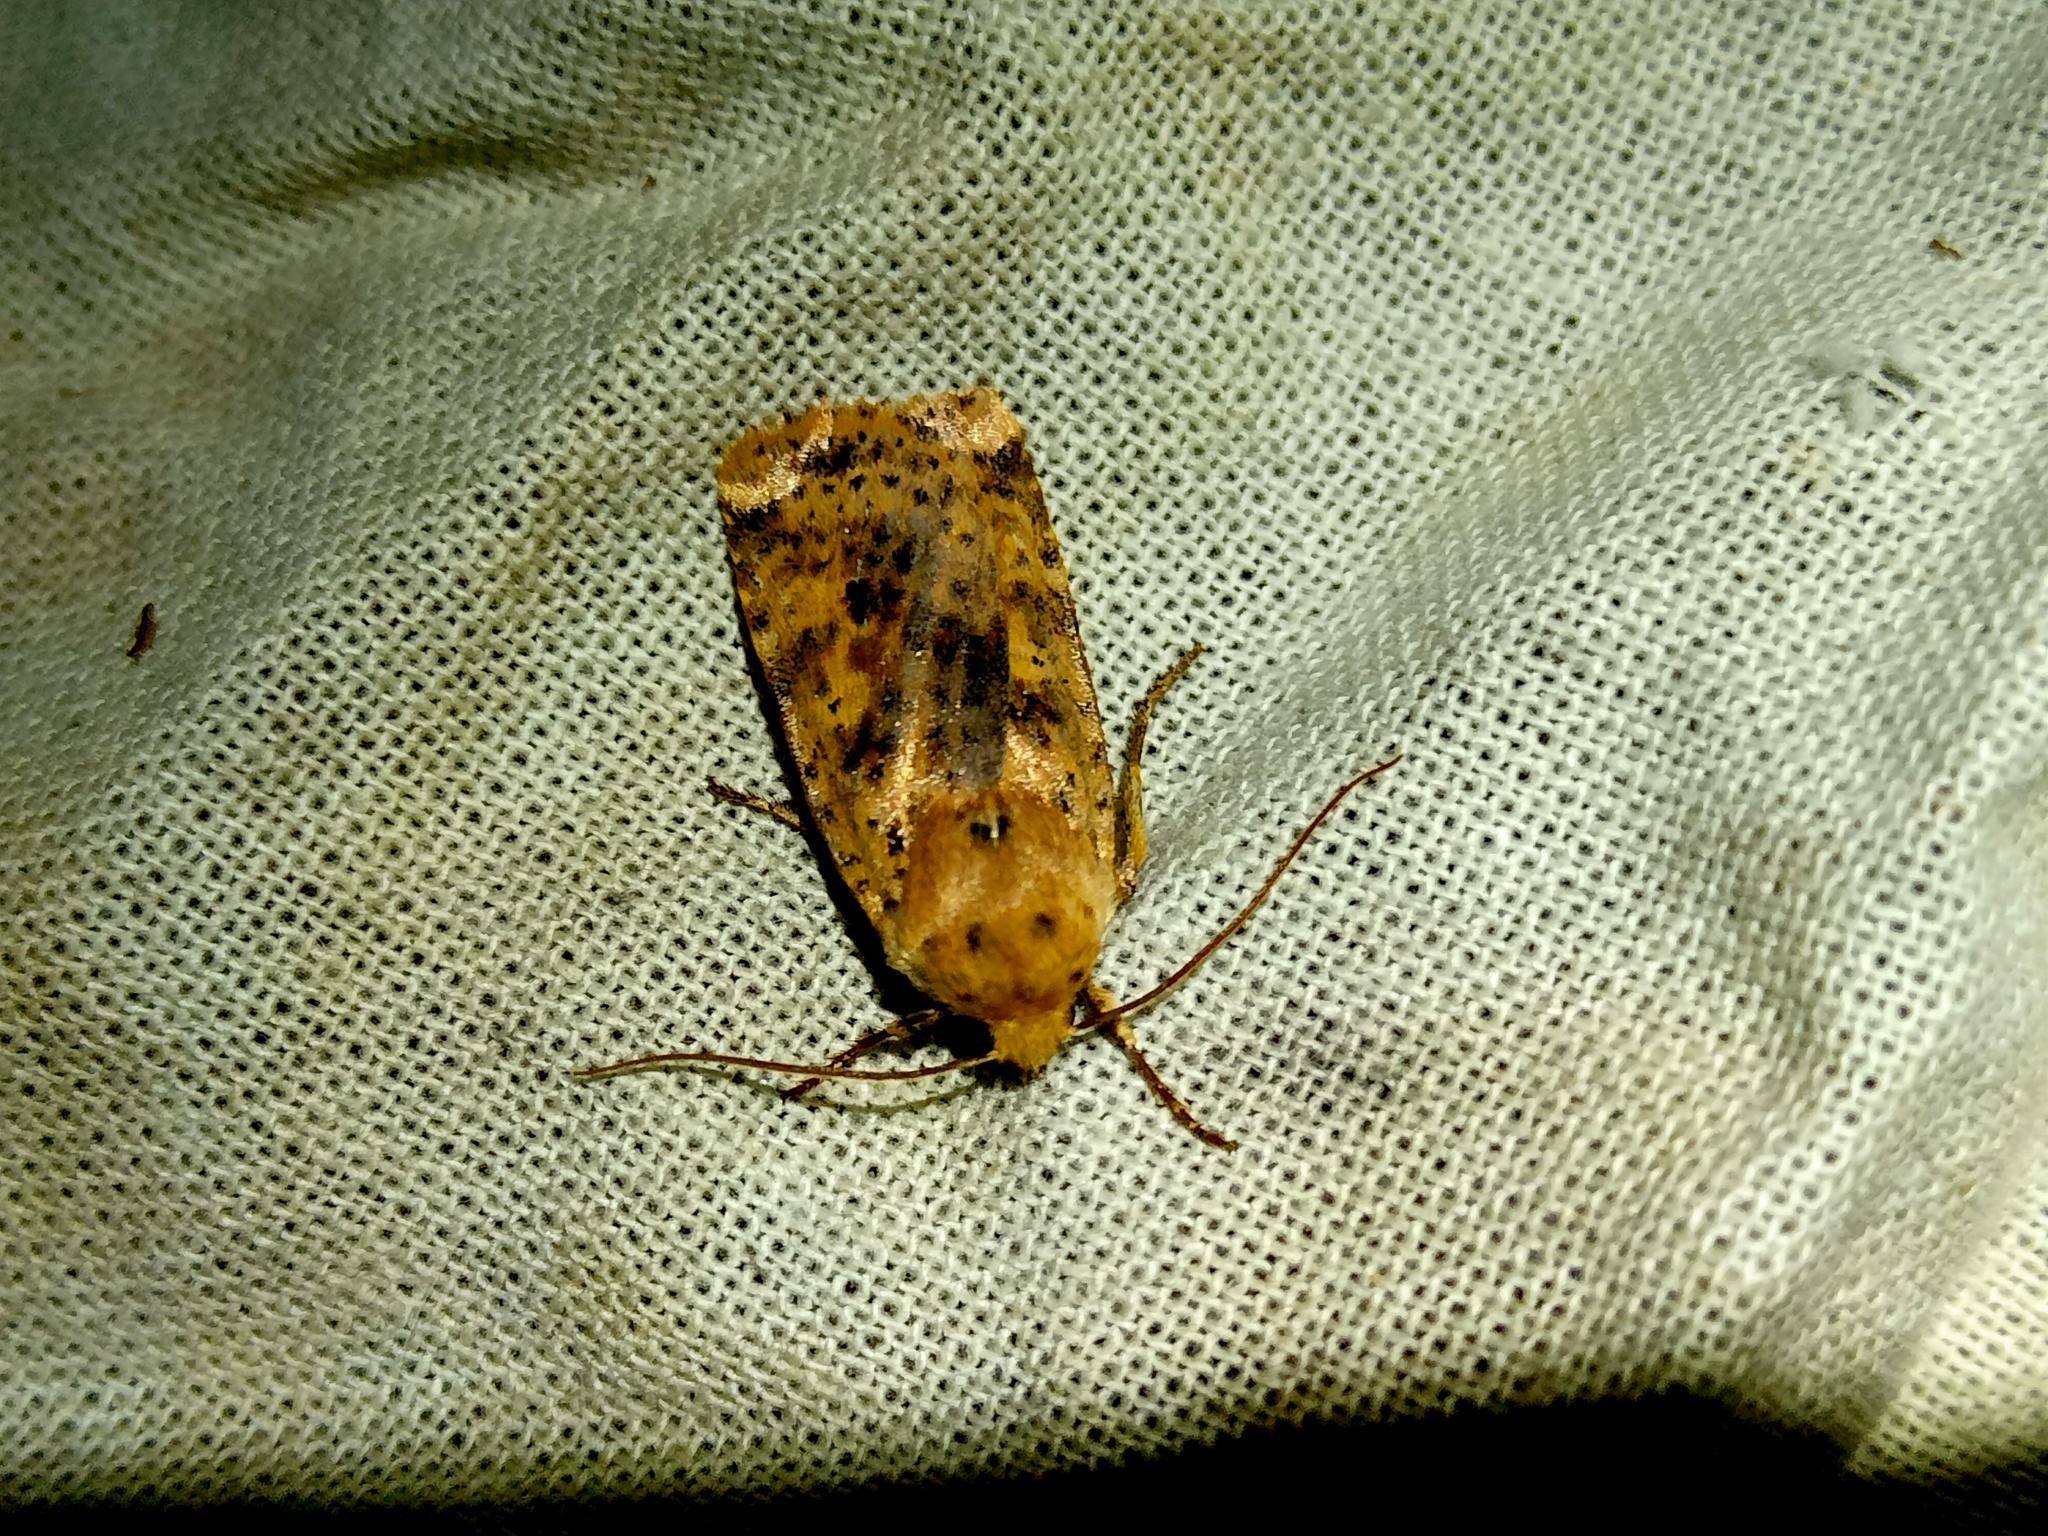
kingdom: Animalia
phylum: Arthropoda
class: Insecta
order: Lepidoptera
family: Noctuidae
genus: Conistra
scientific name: Conistra rubiginea
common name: Dotted chestnut
